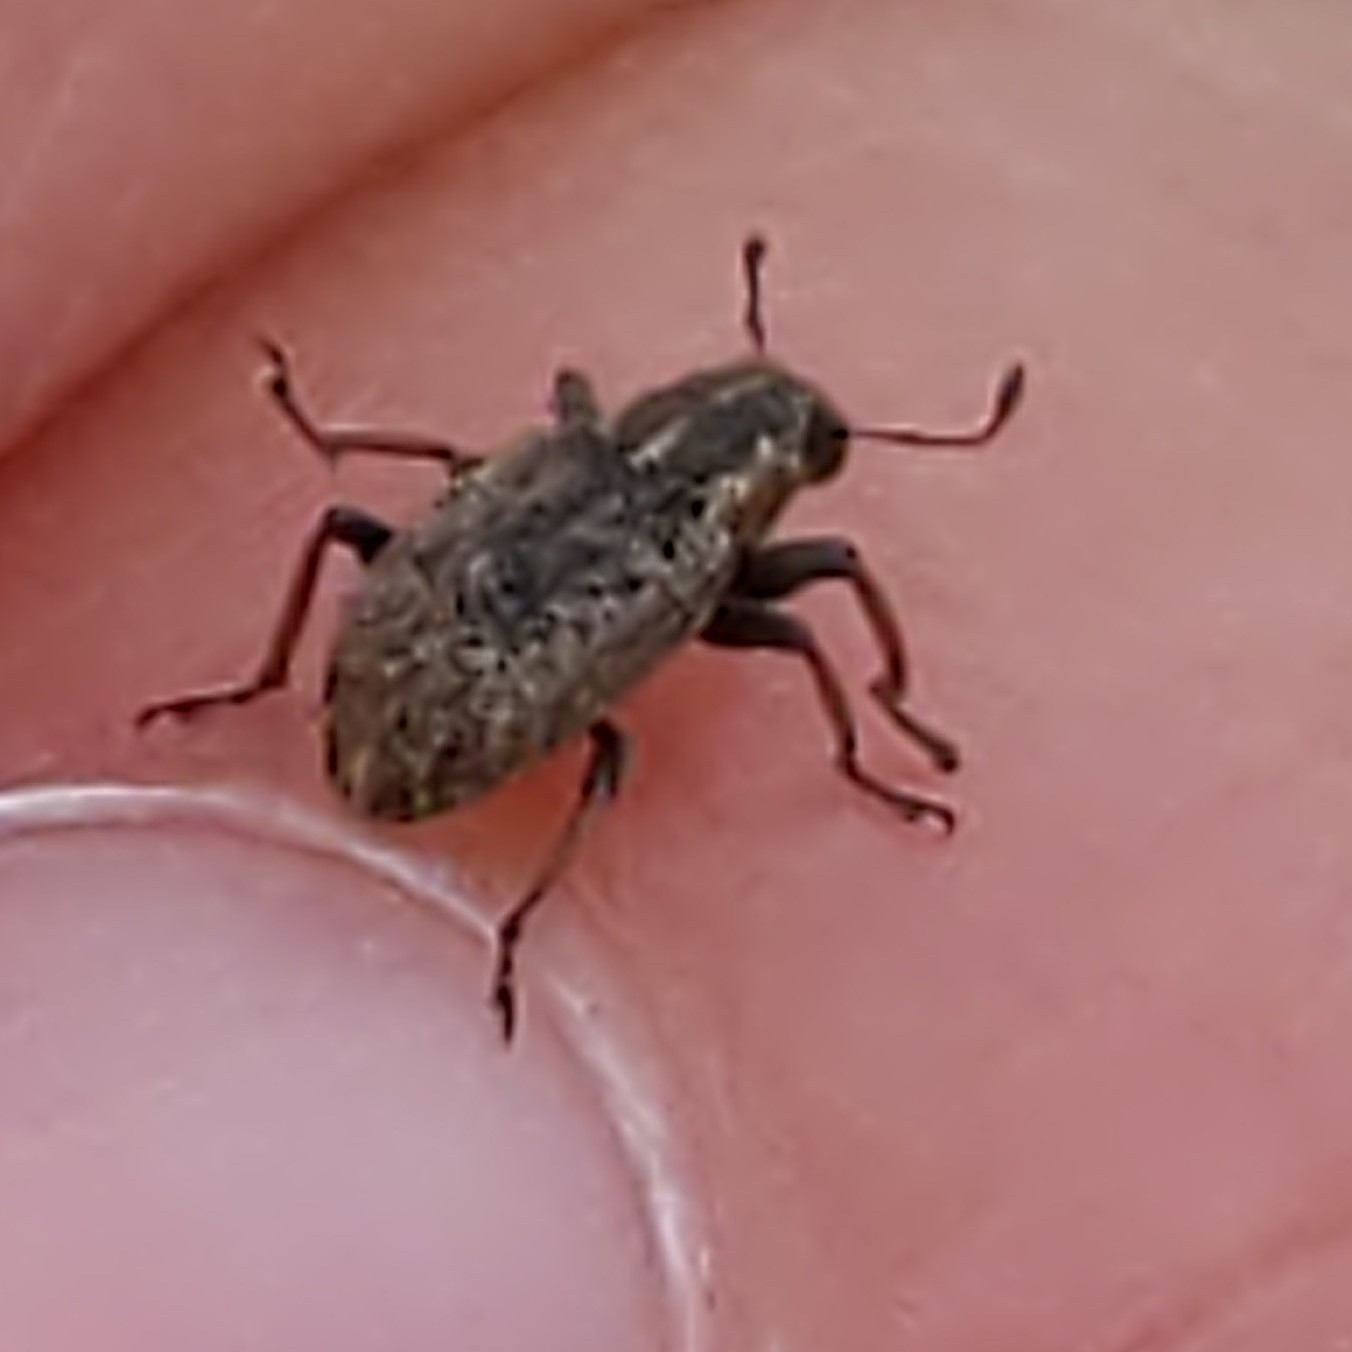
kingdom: Animalia
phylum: Arthropoda
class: Insecta
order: Coleoptera
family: Curculionidae
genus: Sitona
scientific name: Sitona hispidulus
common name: Clover weevil
